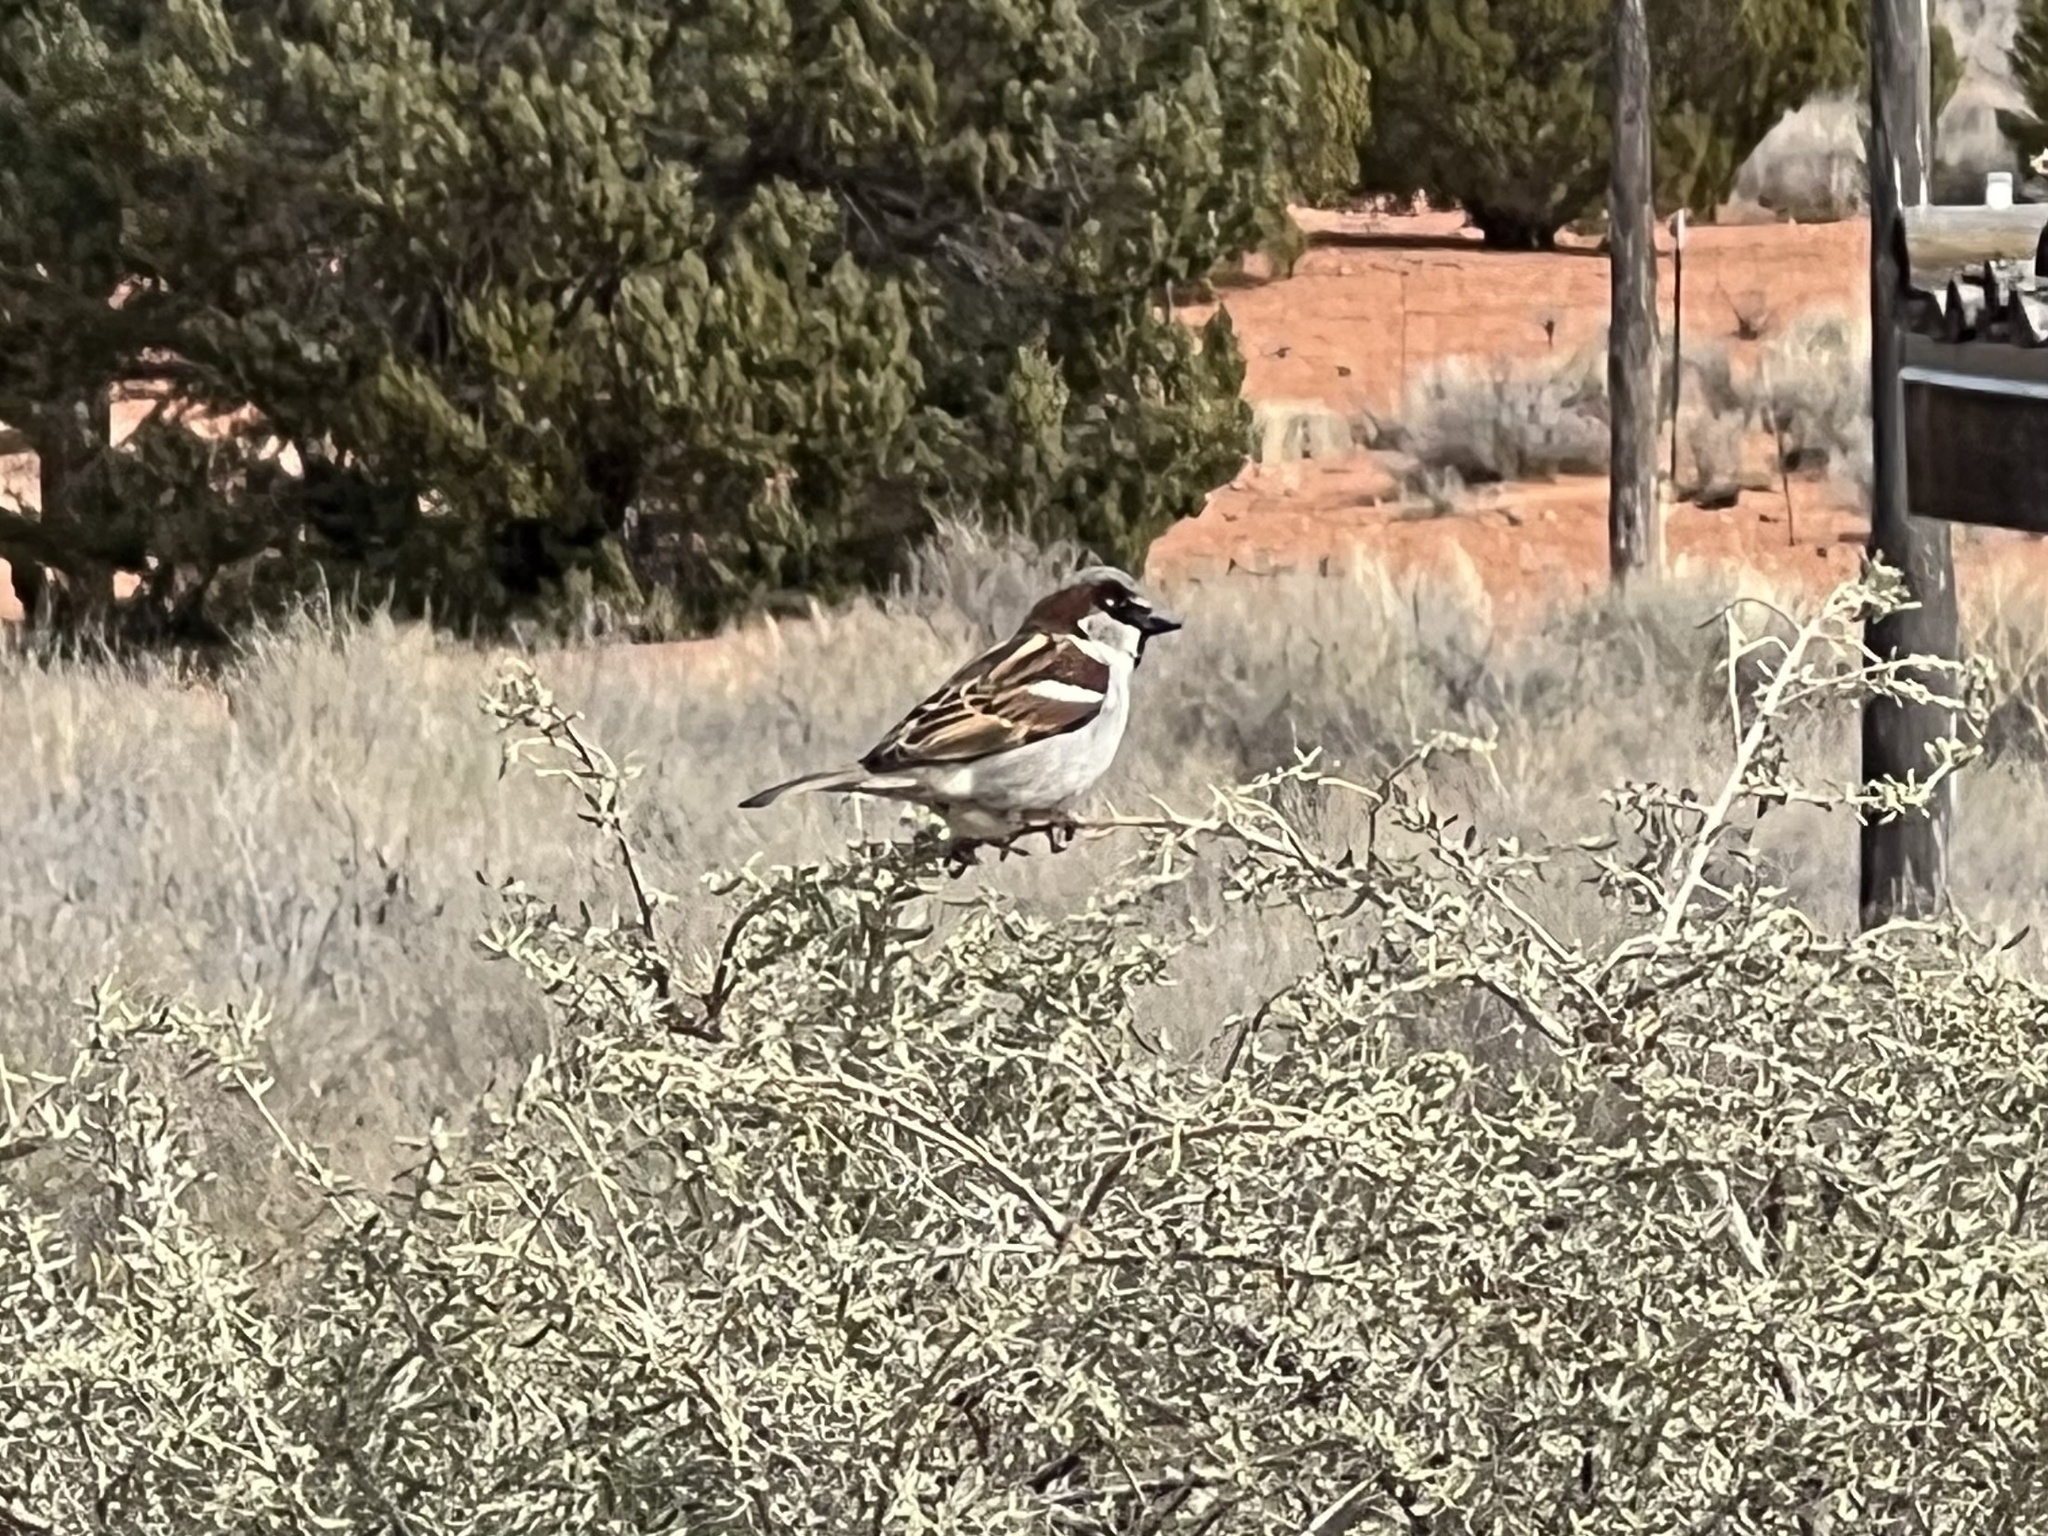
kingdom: Animalia
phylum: Chordata
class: Aves
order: Passeriformes
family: Passeridae
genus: Passer
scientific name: Passer domesticus
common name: House sparrow
